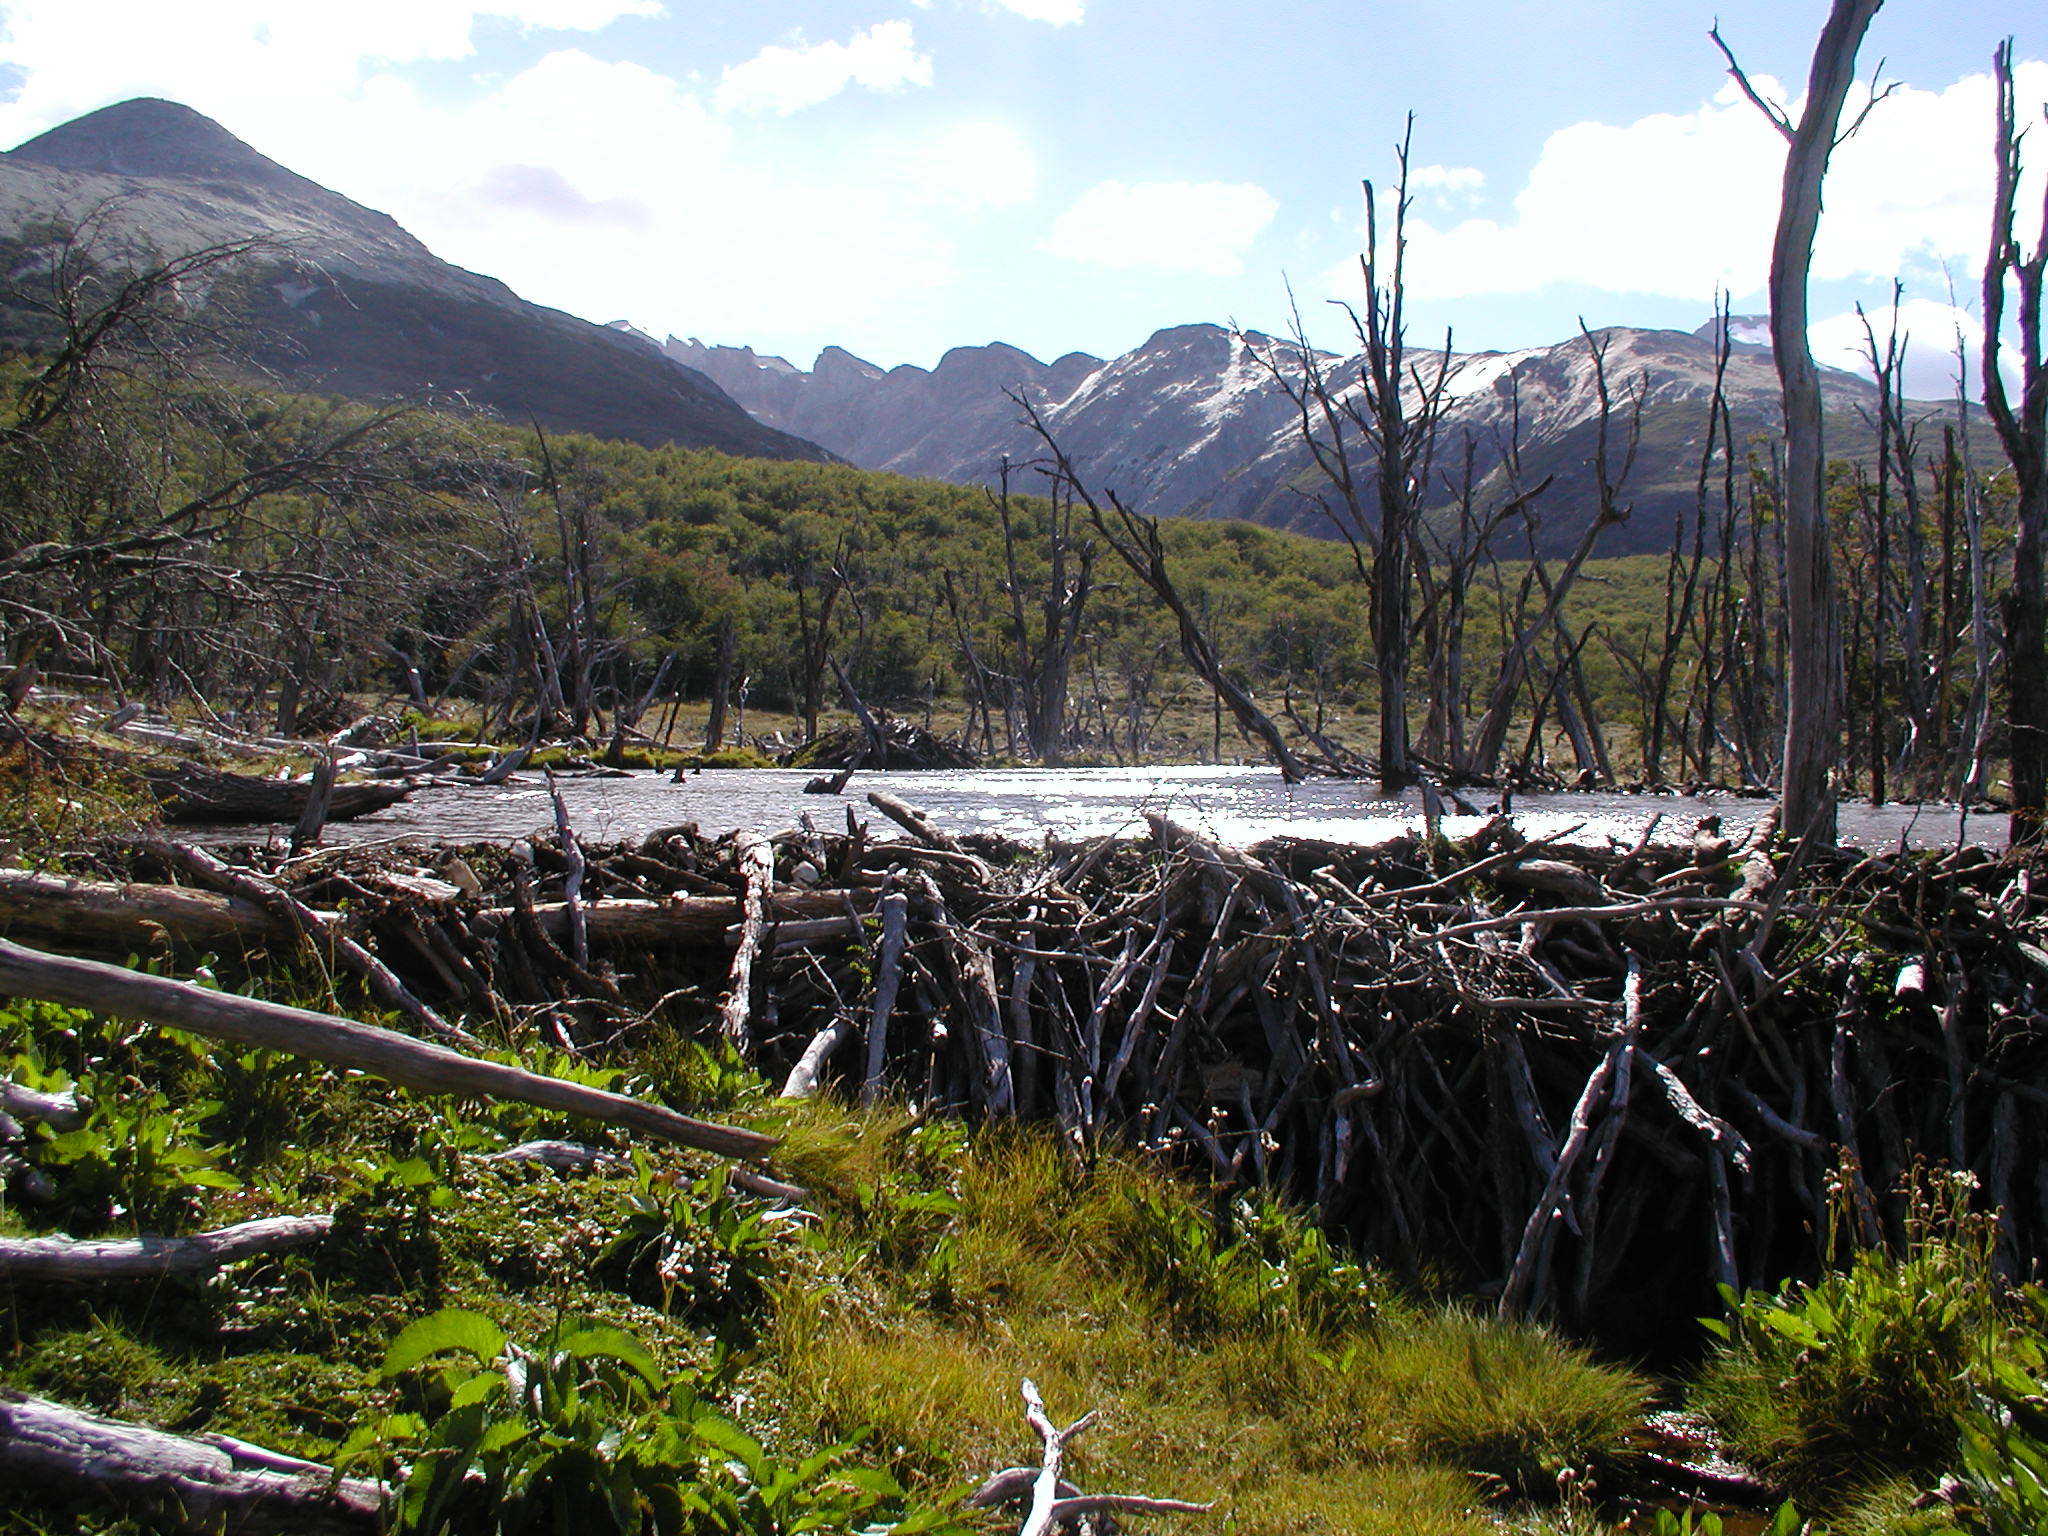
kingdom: Animalia
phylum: Chordata
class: Mammalia
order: Rodentia
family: Castoridae
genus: Castor
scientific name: Castor canadensis
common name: American beaver
